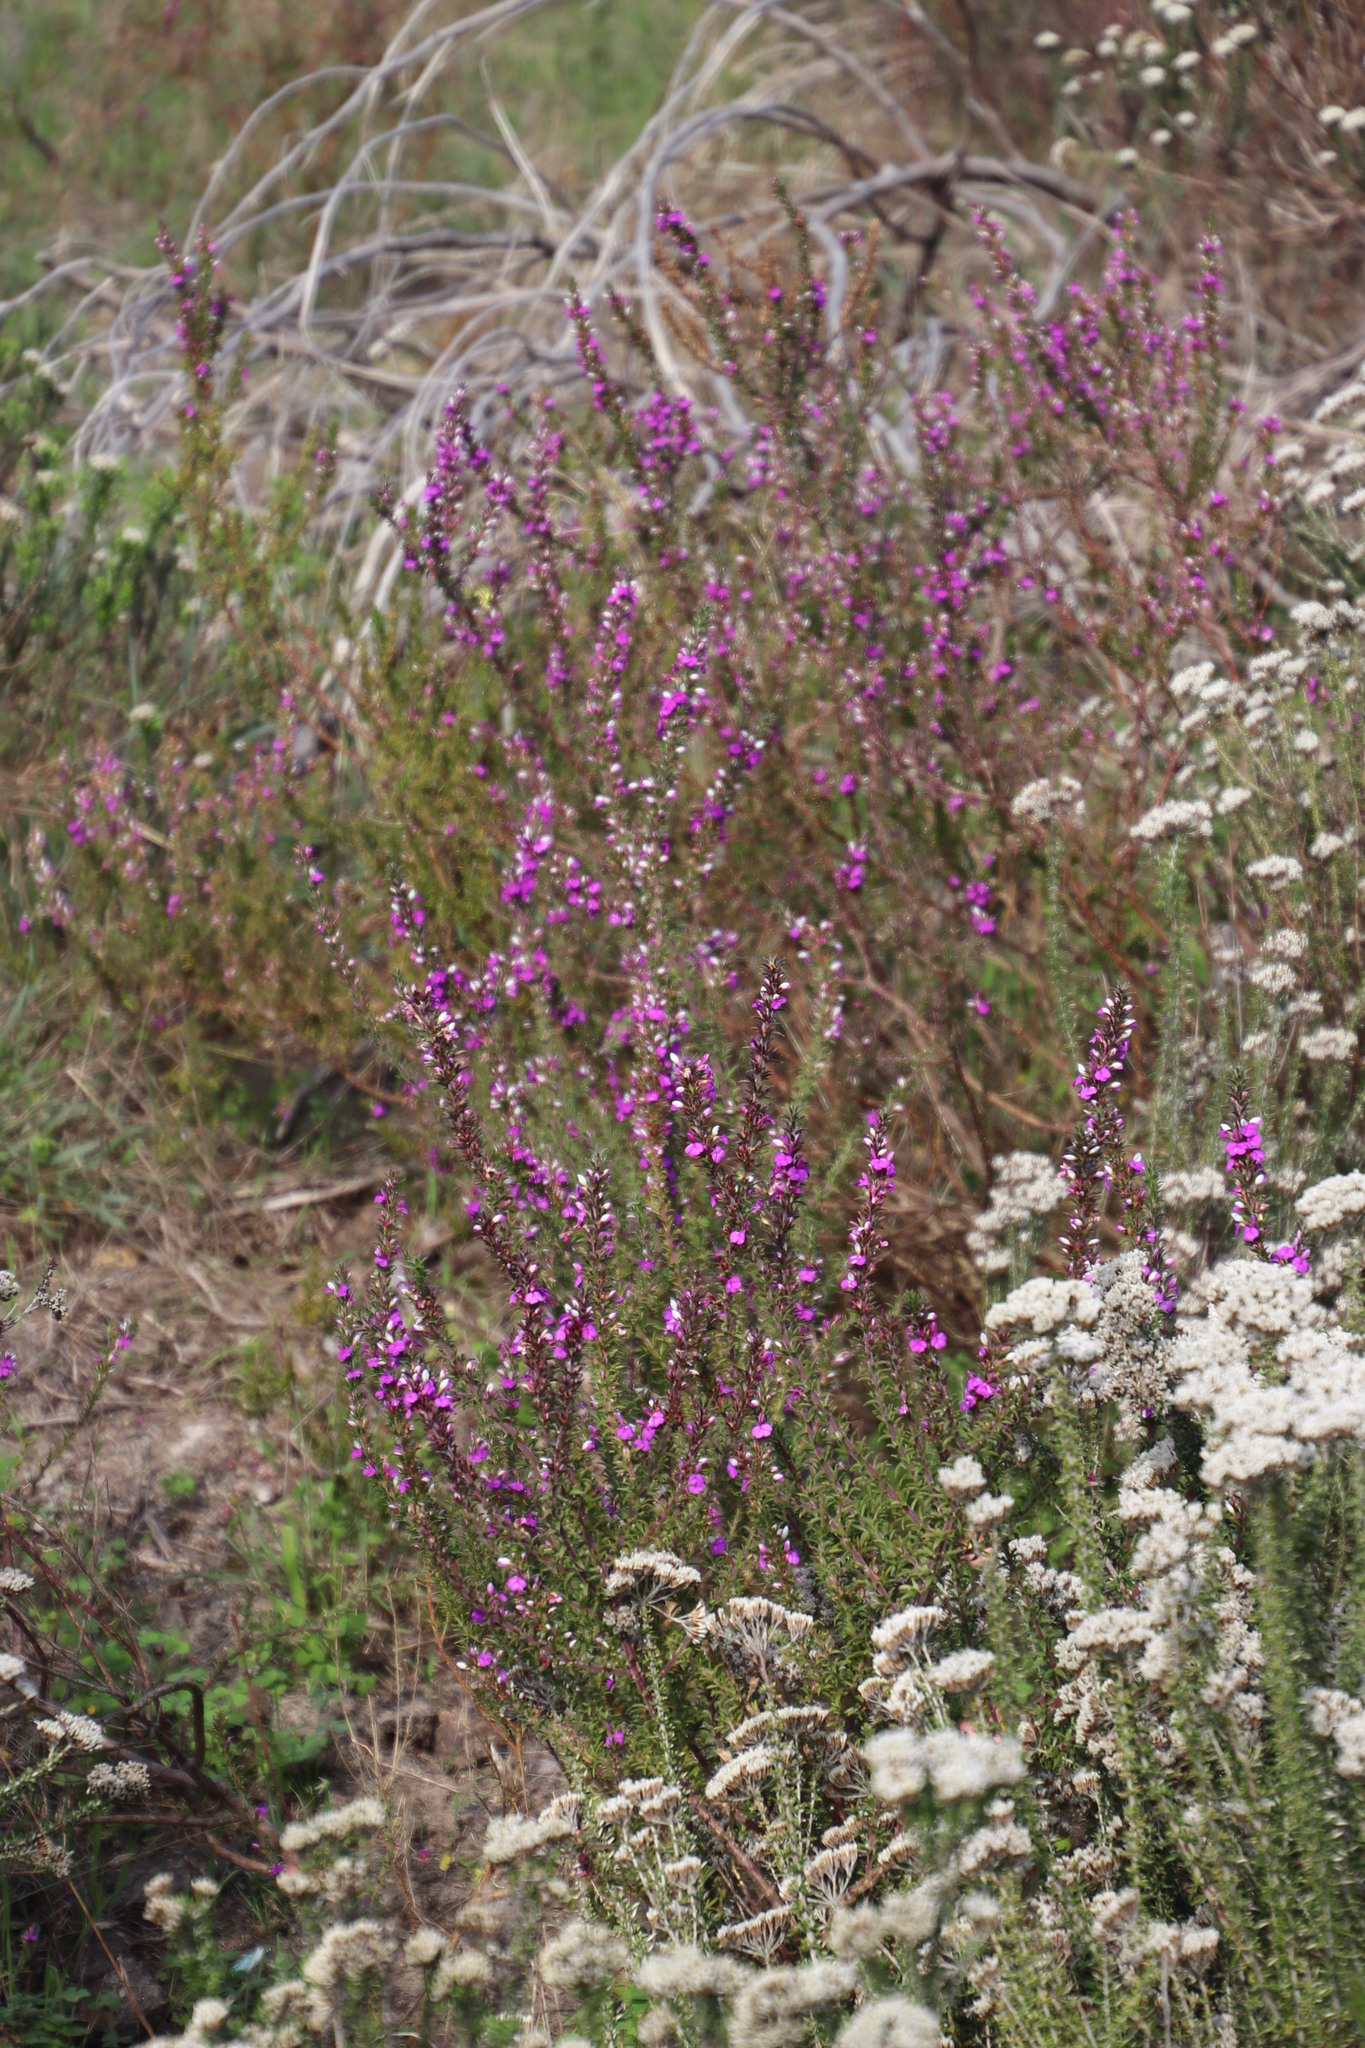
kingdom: Plantae
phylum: Tracheophyta
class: Magnoliopsida
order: Fabales
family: Polygalaceae
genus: Muraltia
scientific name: Muraltia heisteria
